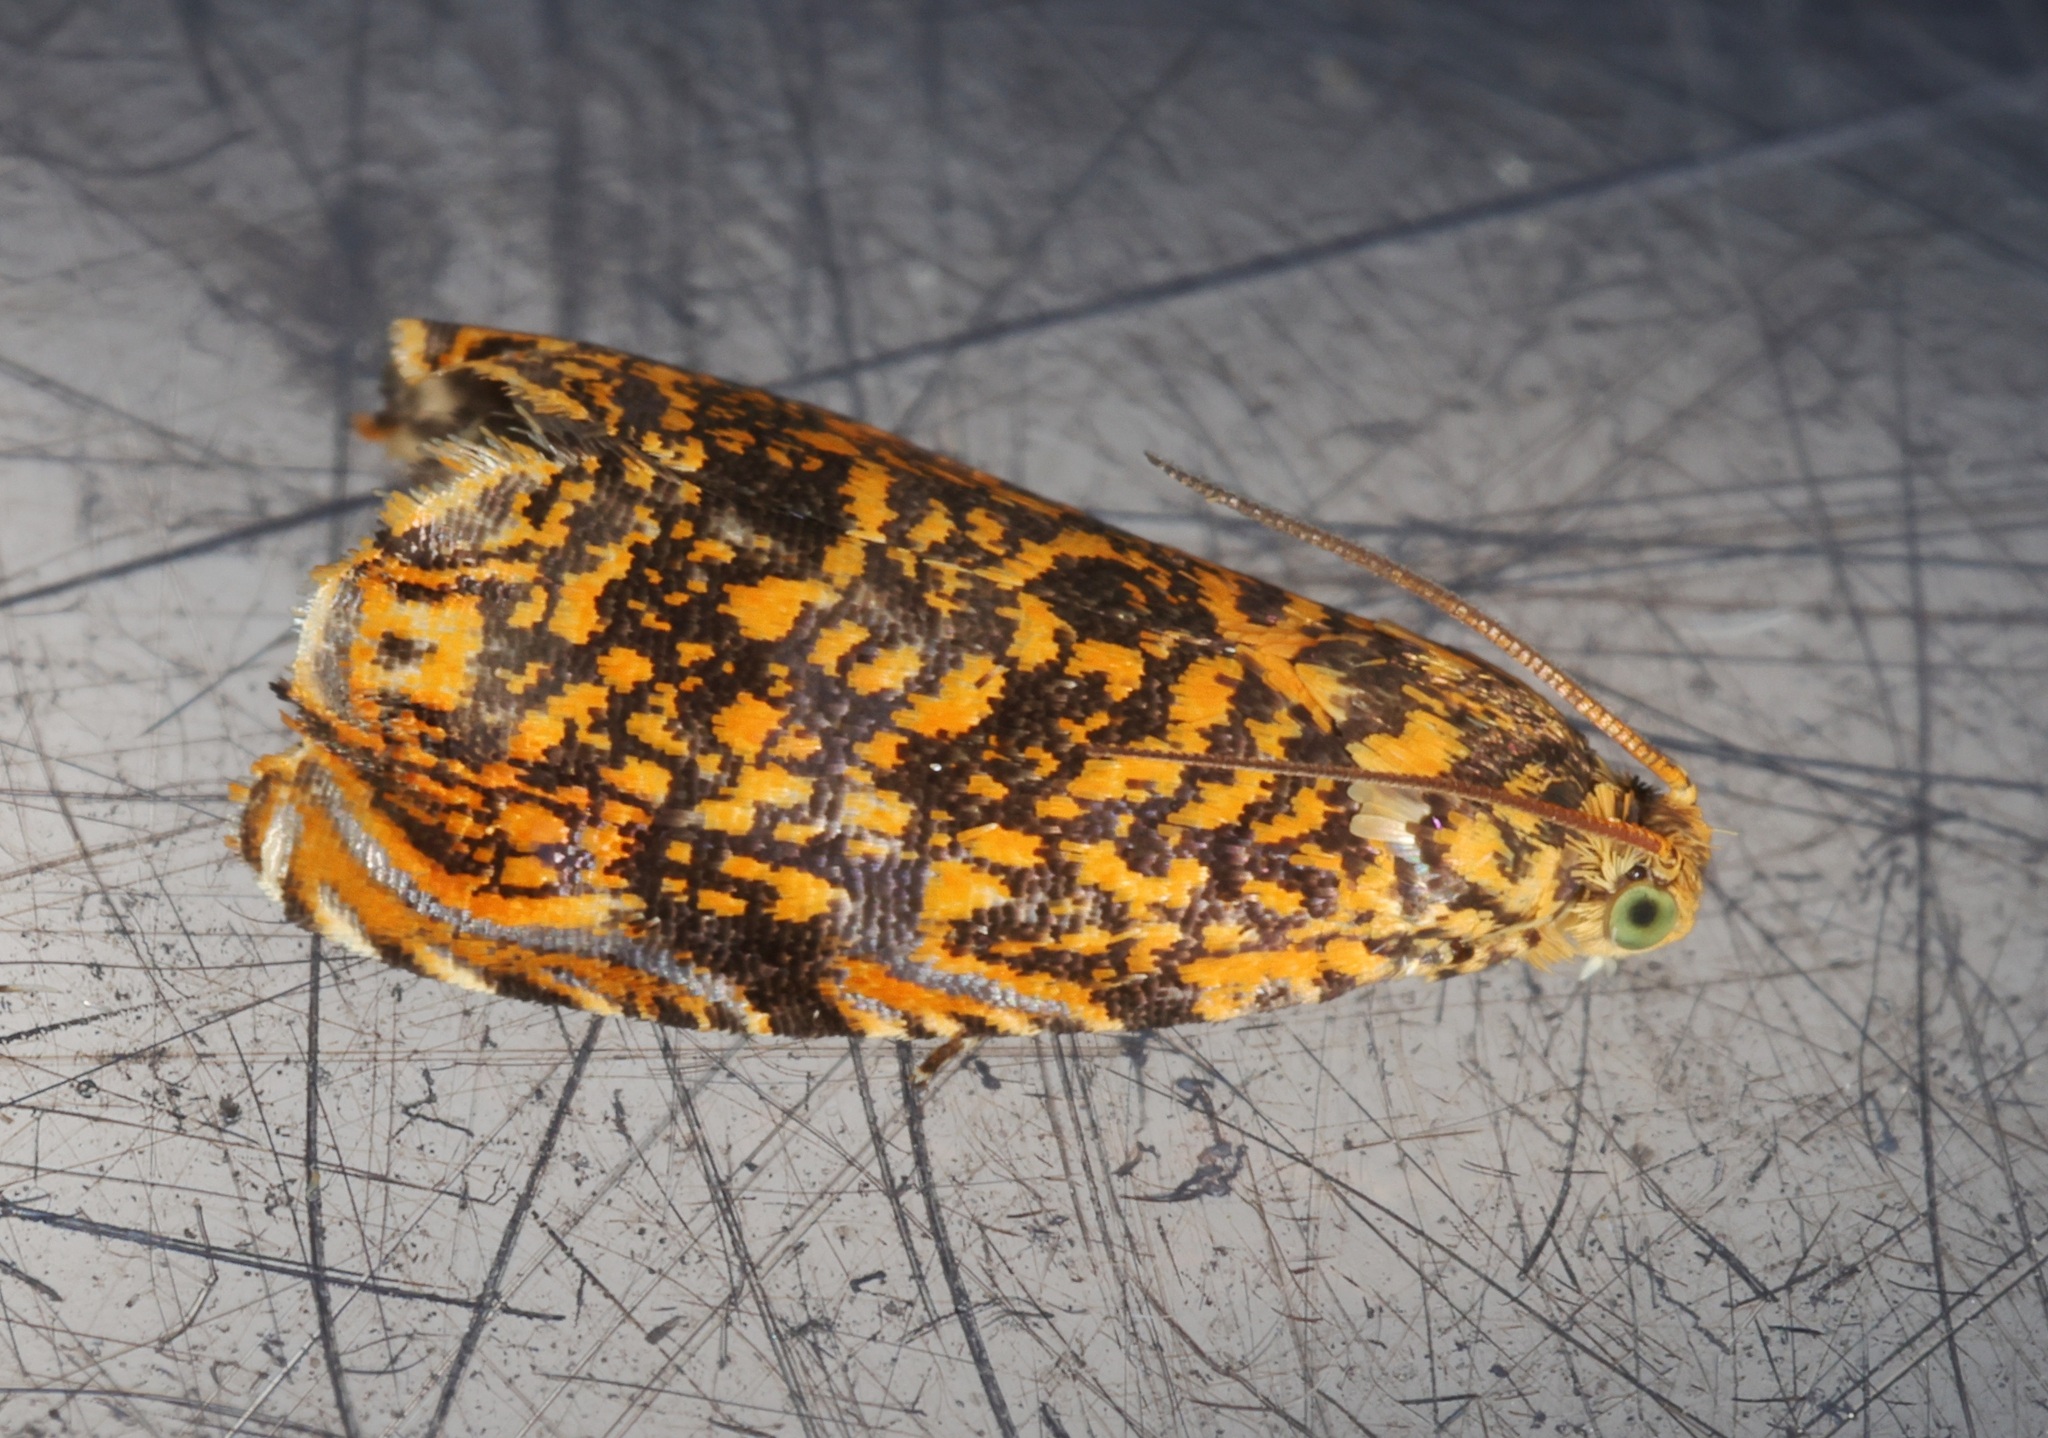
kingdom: Animalia
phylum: Arthropoda
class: Insecta
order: Lepidoptera
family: Tortricidae
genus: Enarmonia
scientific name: Enarmonia
